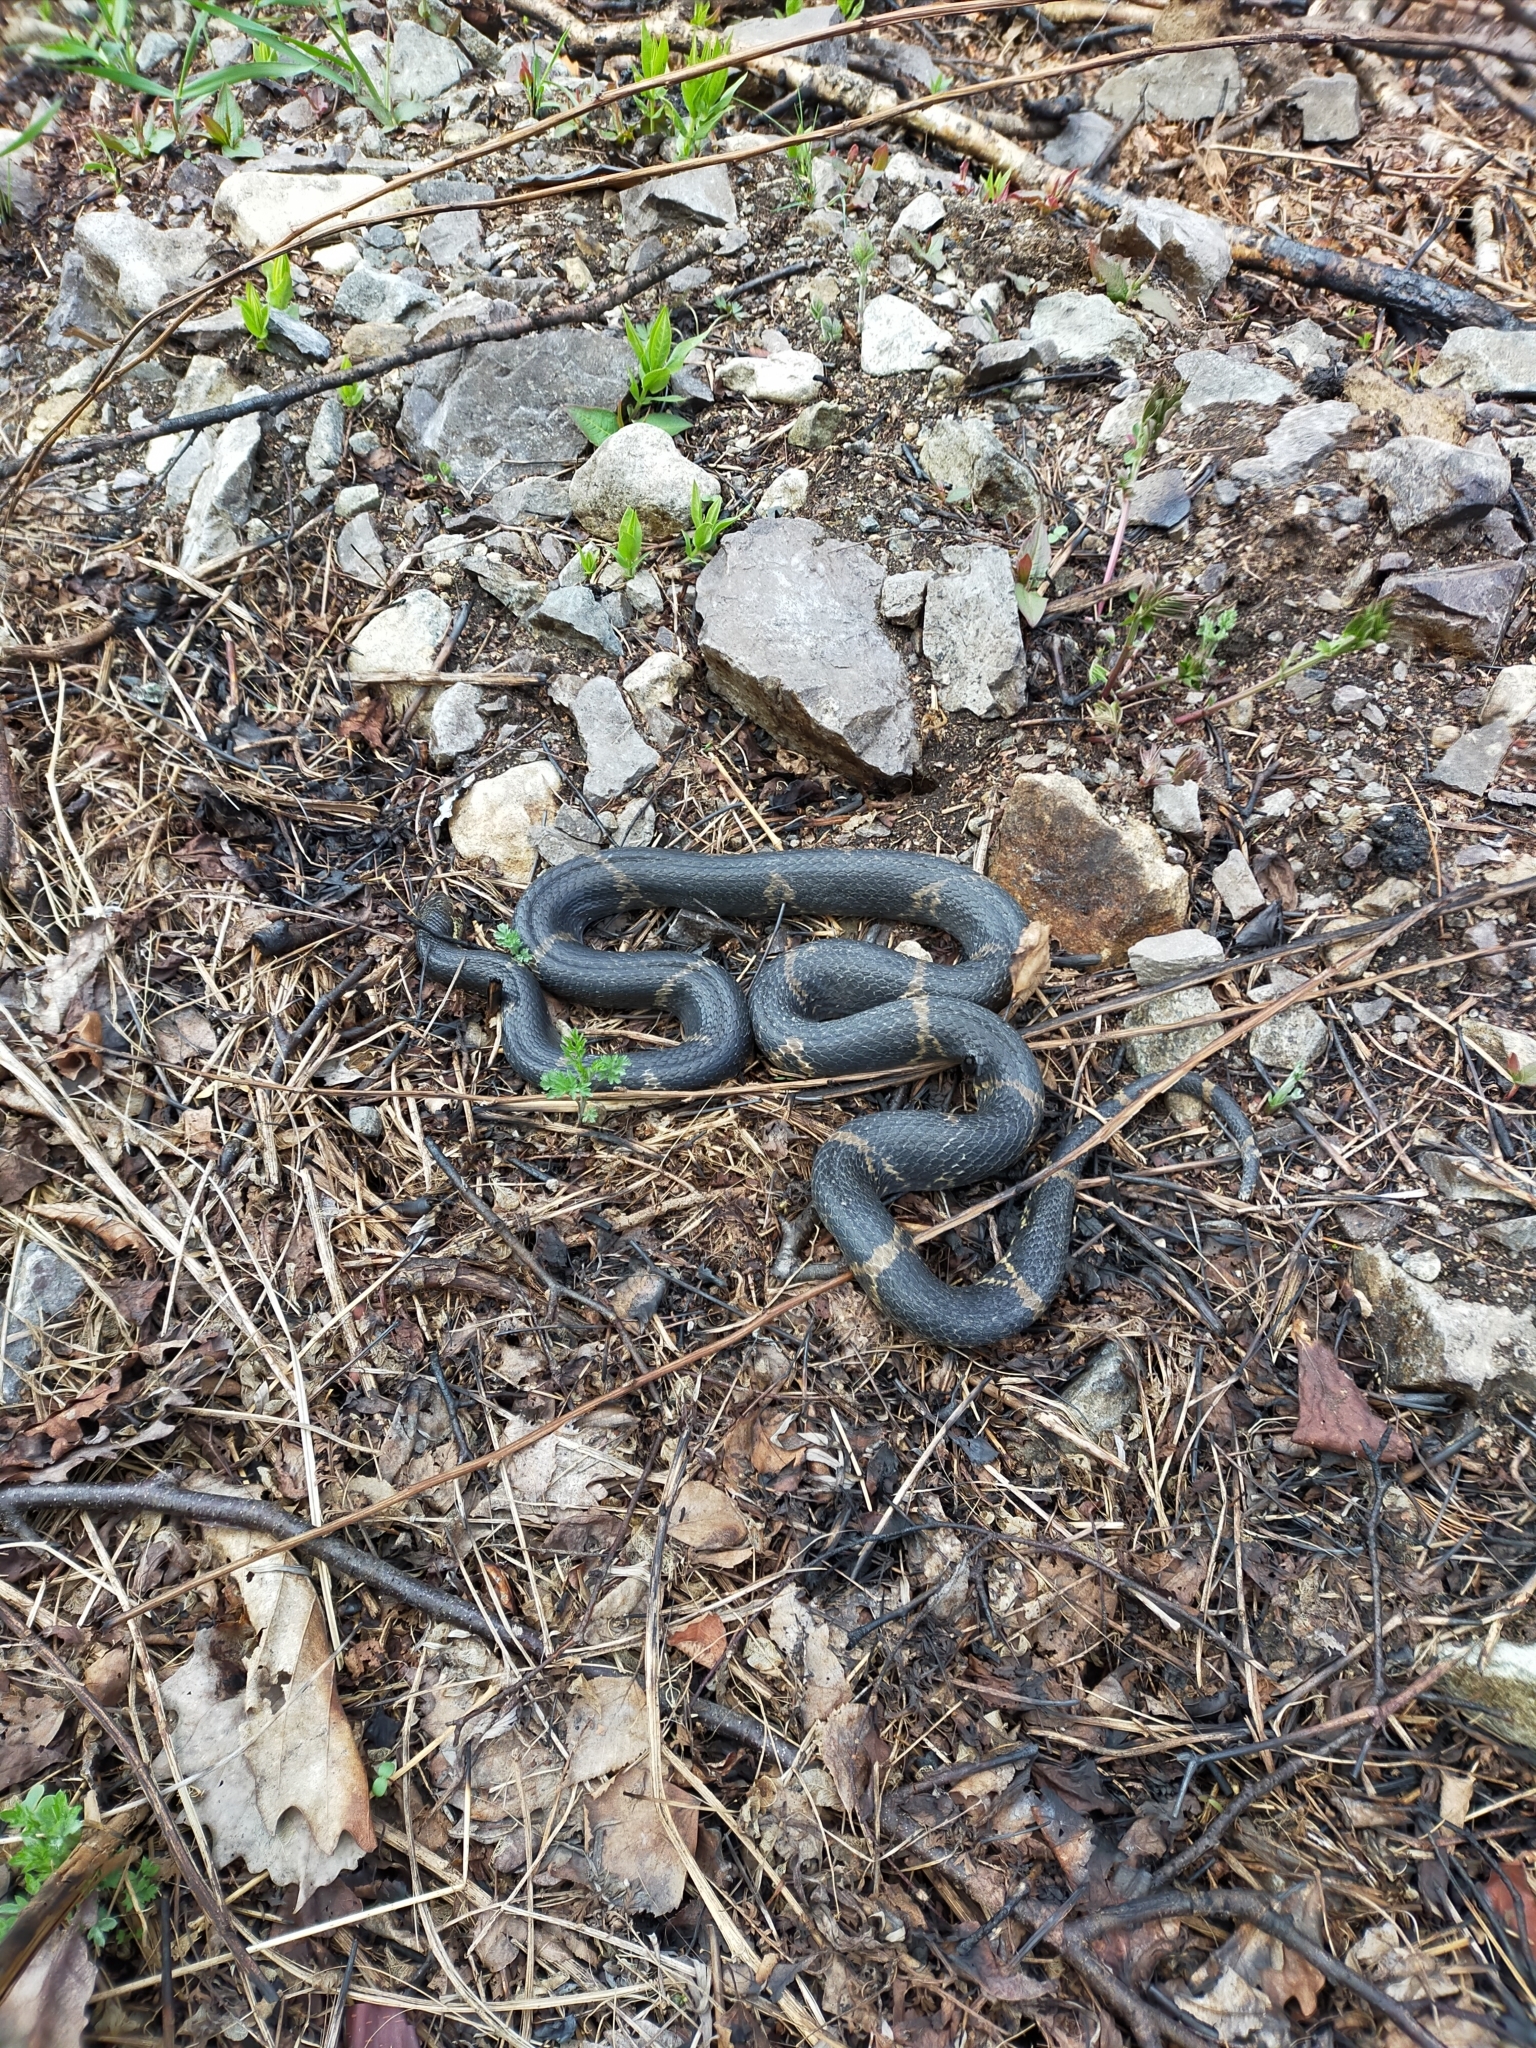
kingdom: Animalia
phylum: Chordata
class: Squamata
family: Colubridae
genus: Elaphe
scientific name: Elaphe schrenckii
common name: Amur rat snake
